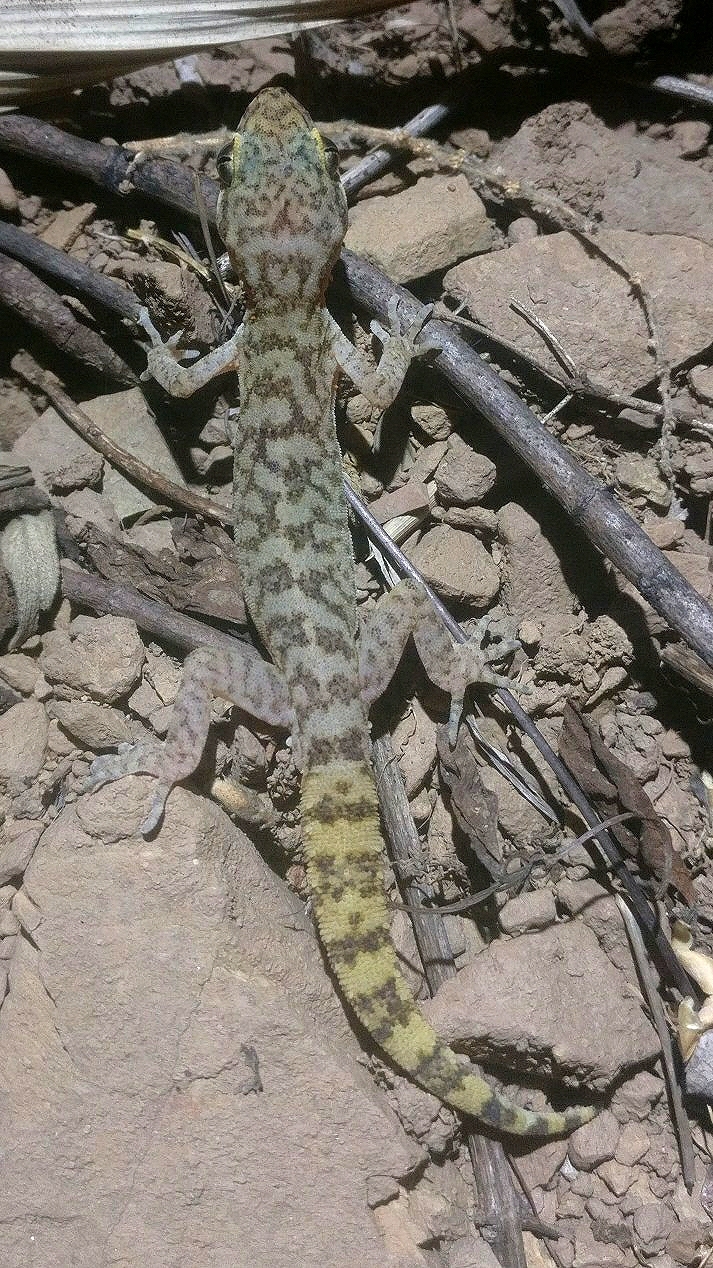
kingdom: Animalia
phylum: Chordata
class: Squamata
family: Gekkonidae
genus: Cyrtodactylus
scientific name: Cyrtodactylus lawderanus
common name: Lawder’s bent-toed gecko
